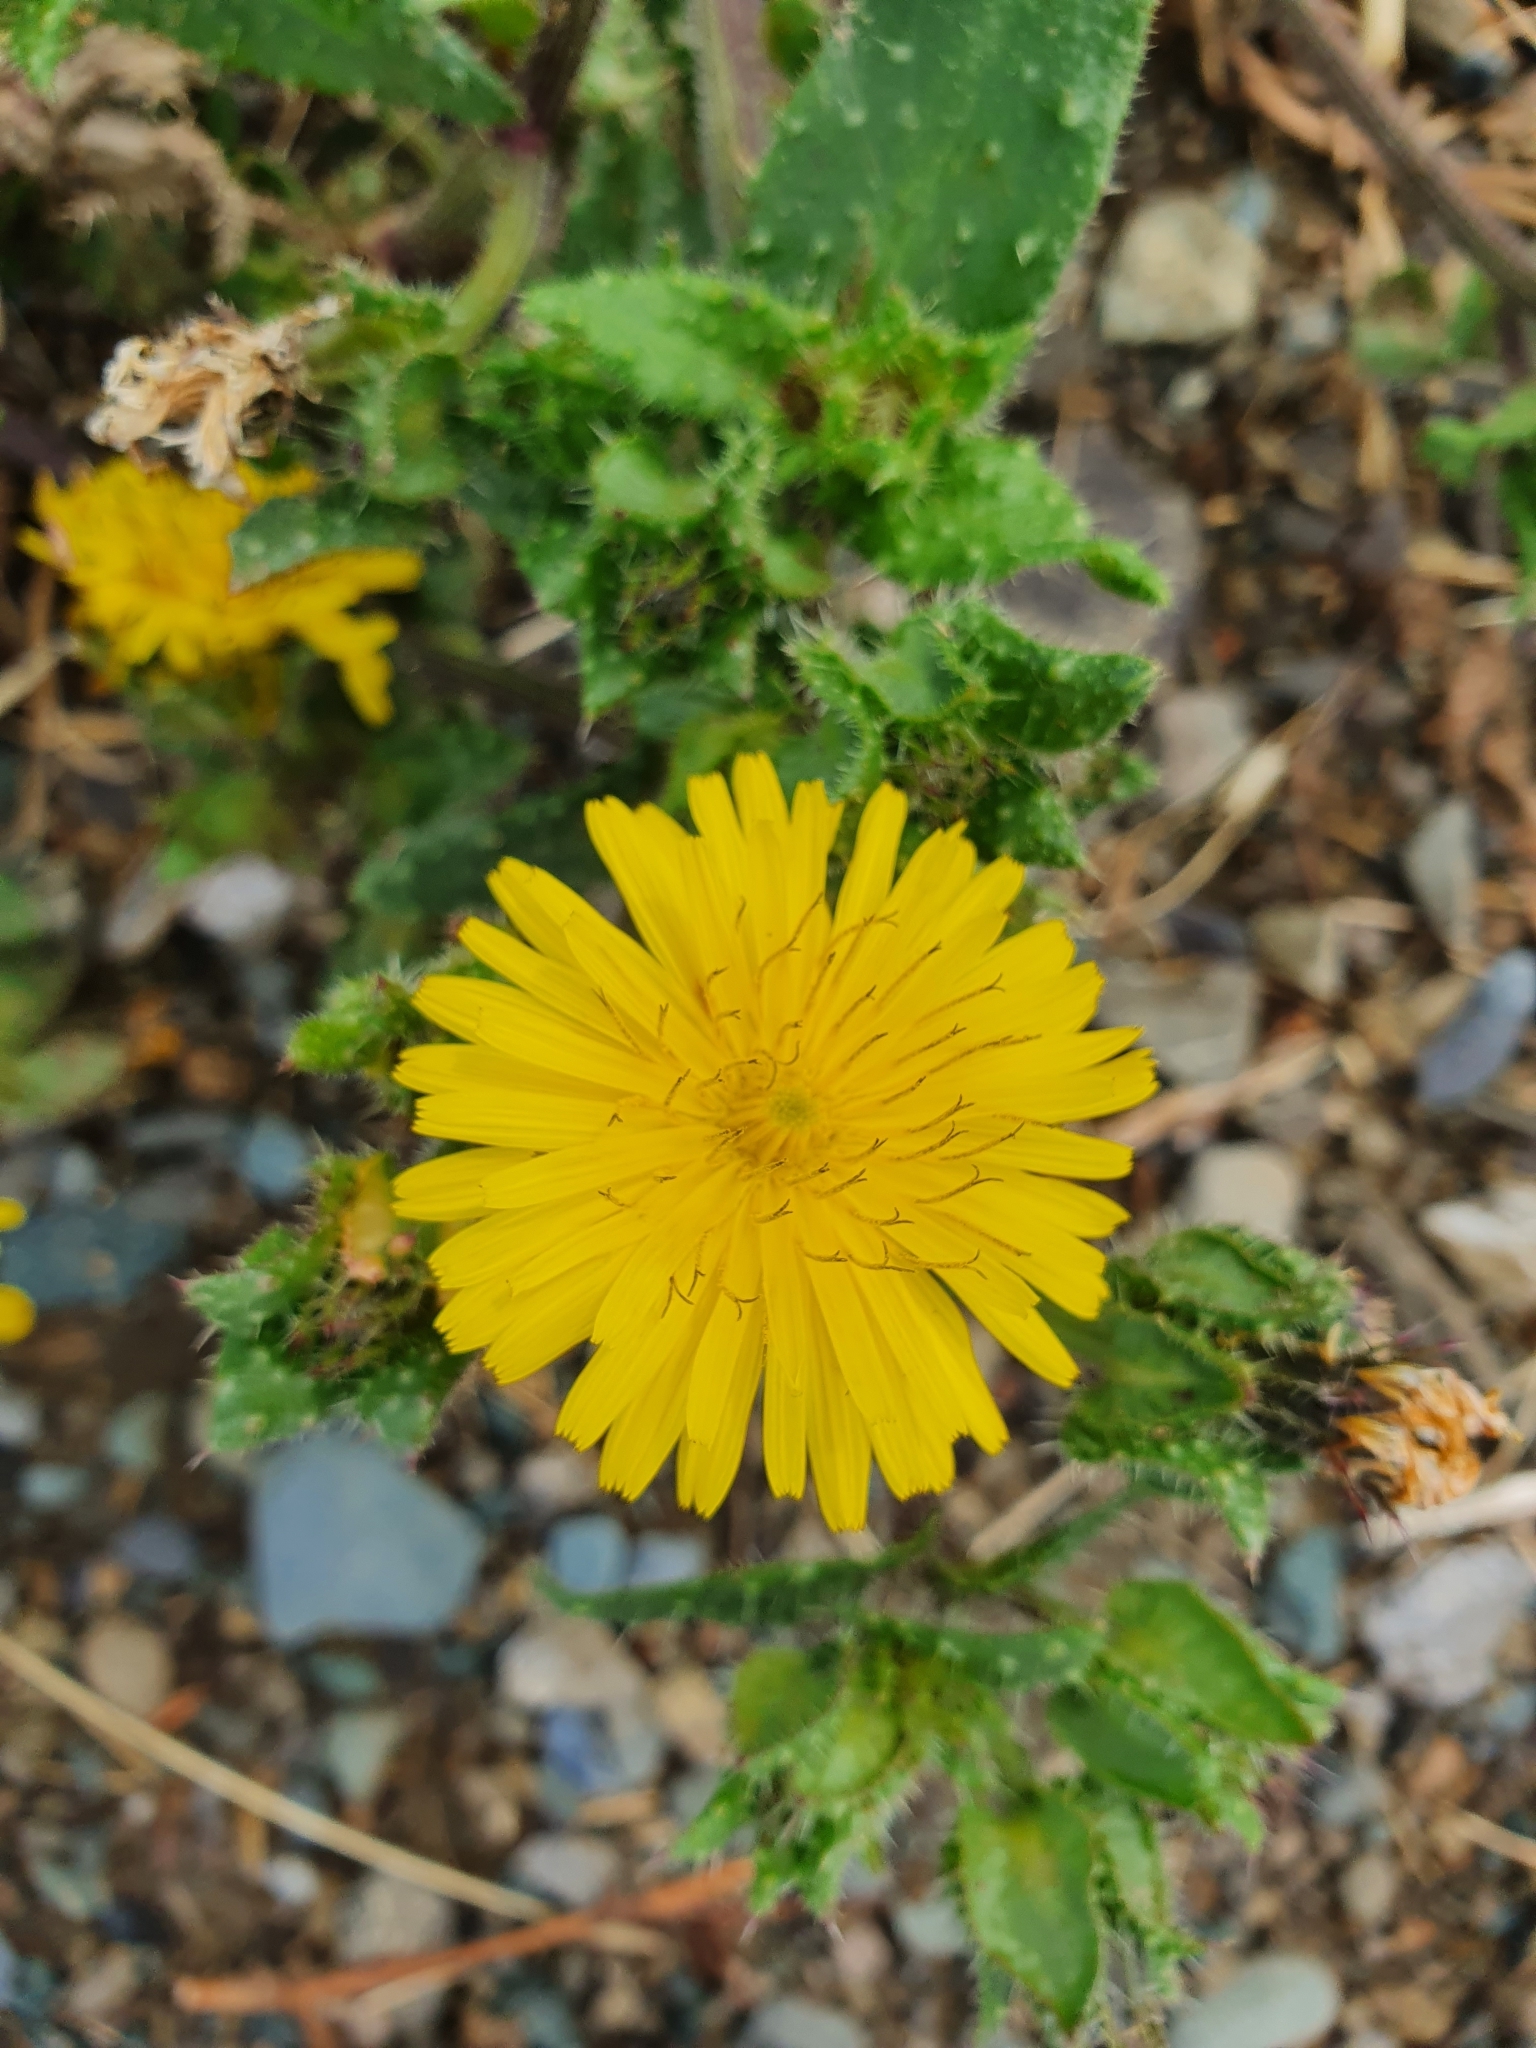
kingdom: Plantae
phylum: Tracheophyta
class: Magnoliopsida
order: Asterales
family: Asteraceae
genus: Helminthotheca
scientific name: Helminthotheca echioides
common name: Ox-tongue
